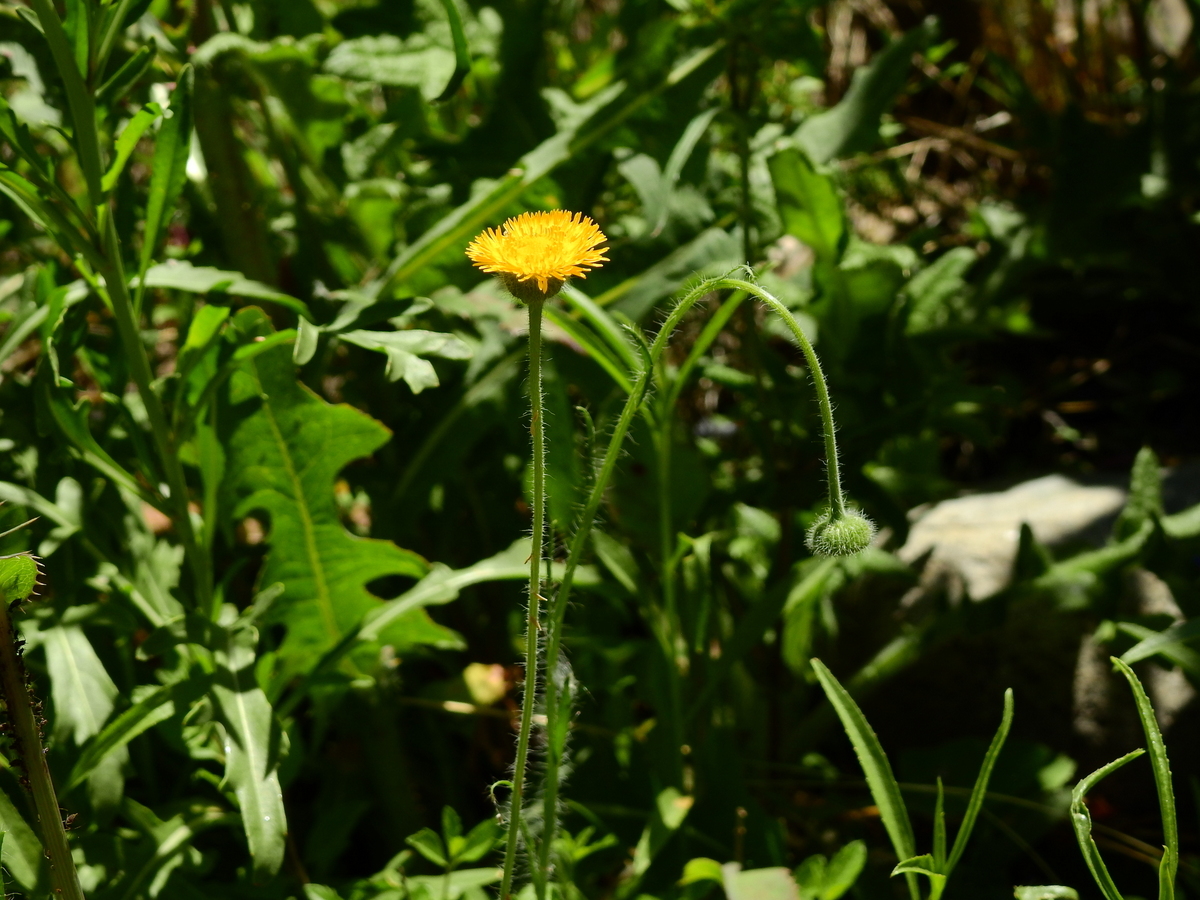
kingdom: Plantae
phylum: Tracheophyta
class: Magnoliopsida
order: Asterales
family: Asteraceae
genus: Hysterionica
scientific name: Hysterionica jasionoides
